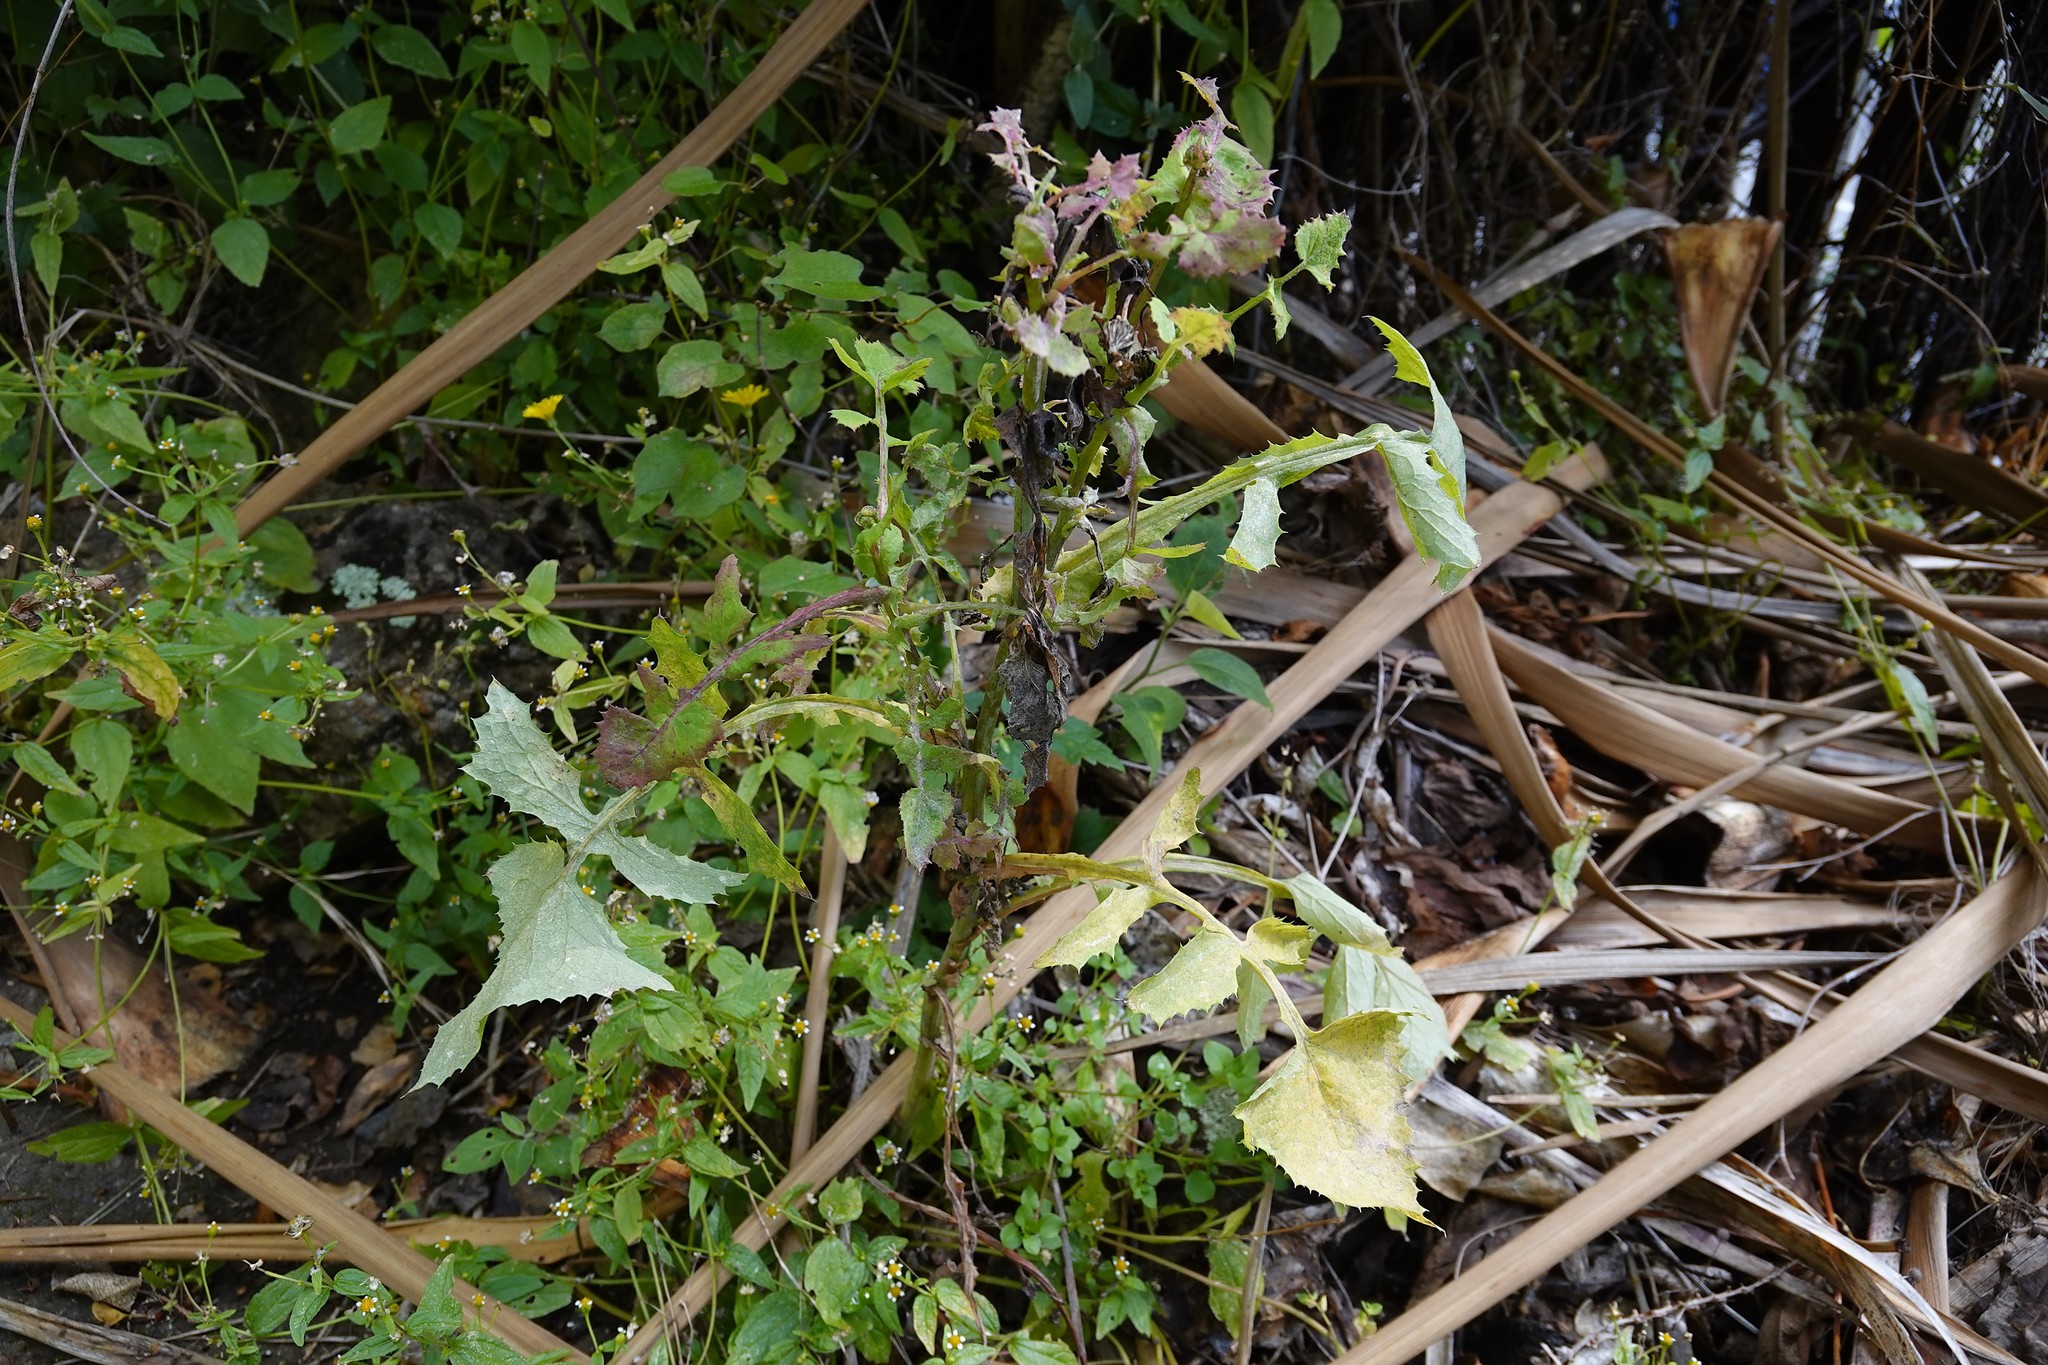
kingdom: Plantae
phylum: Tracheophyta
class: Magnoliopsida
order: Asterales
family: Asteraceae
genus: Sonchus
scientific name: Sonchus oleraceus
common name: Common sowthistle
